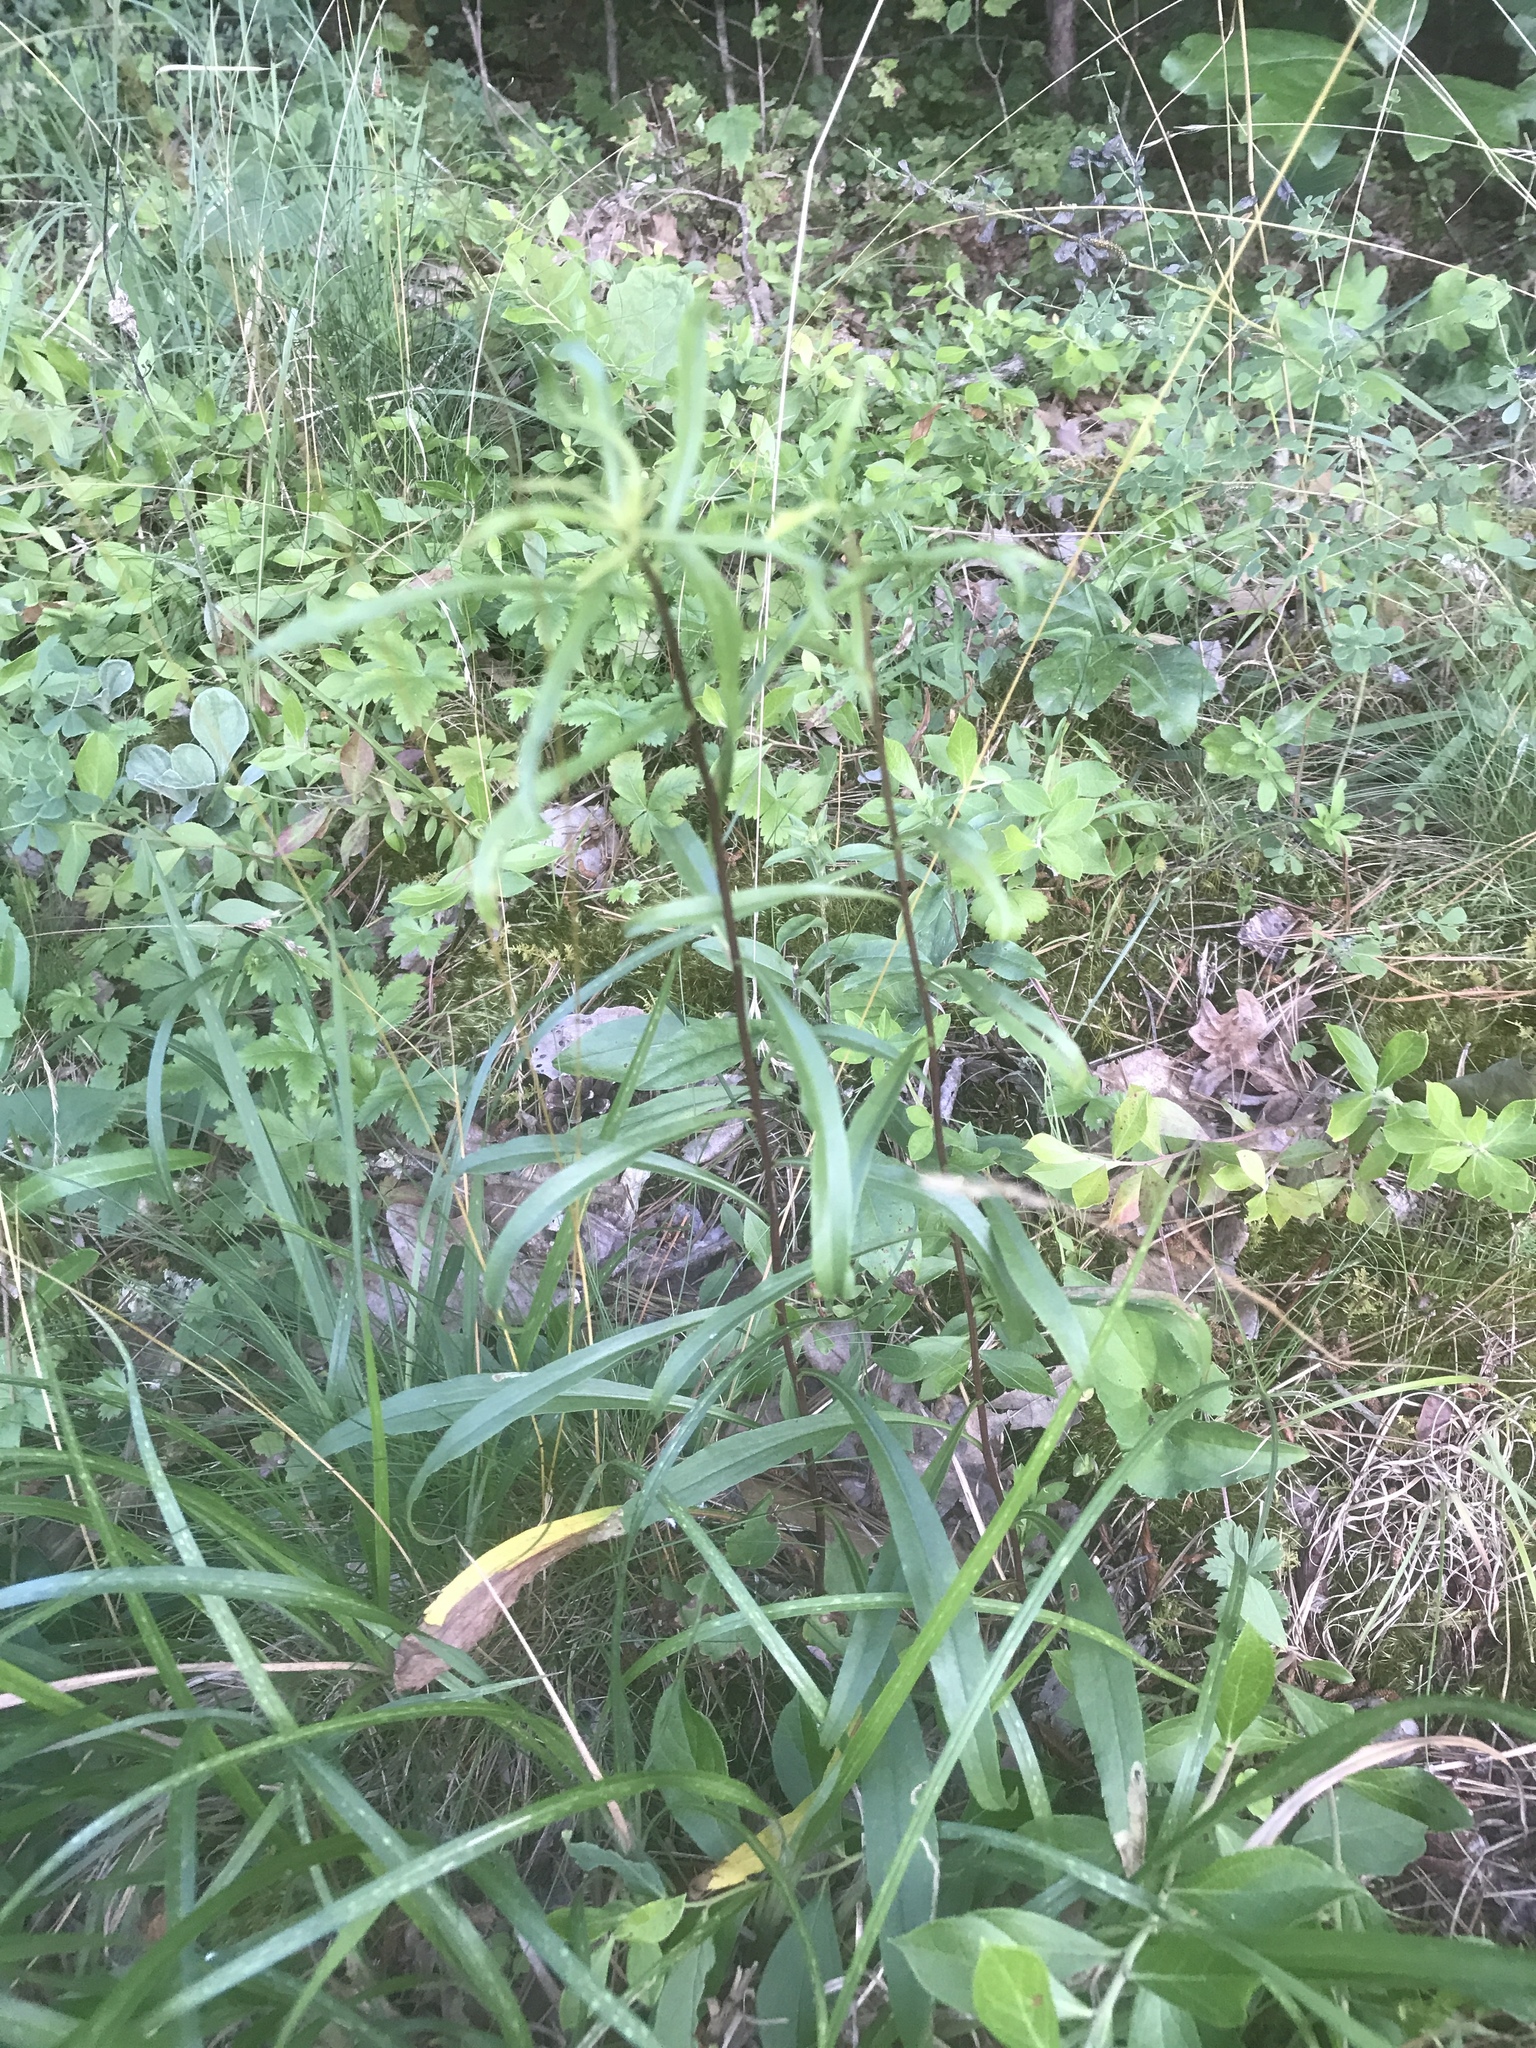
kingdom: Plantae
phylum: Tracheophyta
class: Magnoliopsida
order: Asterales
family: Asteraceae
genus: Solidago
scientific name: Solidago pinetorum
